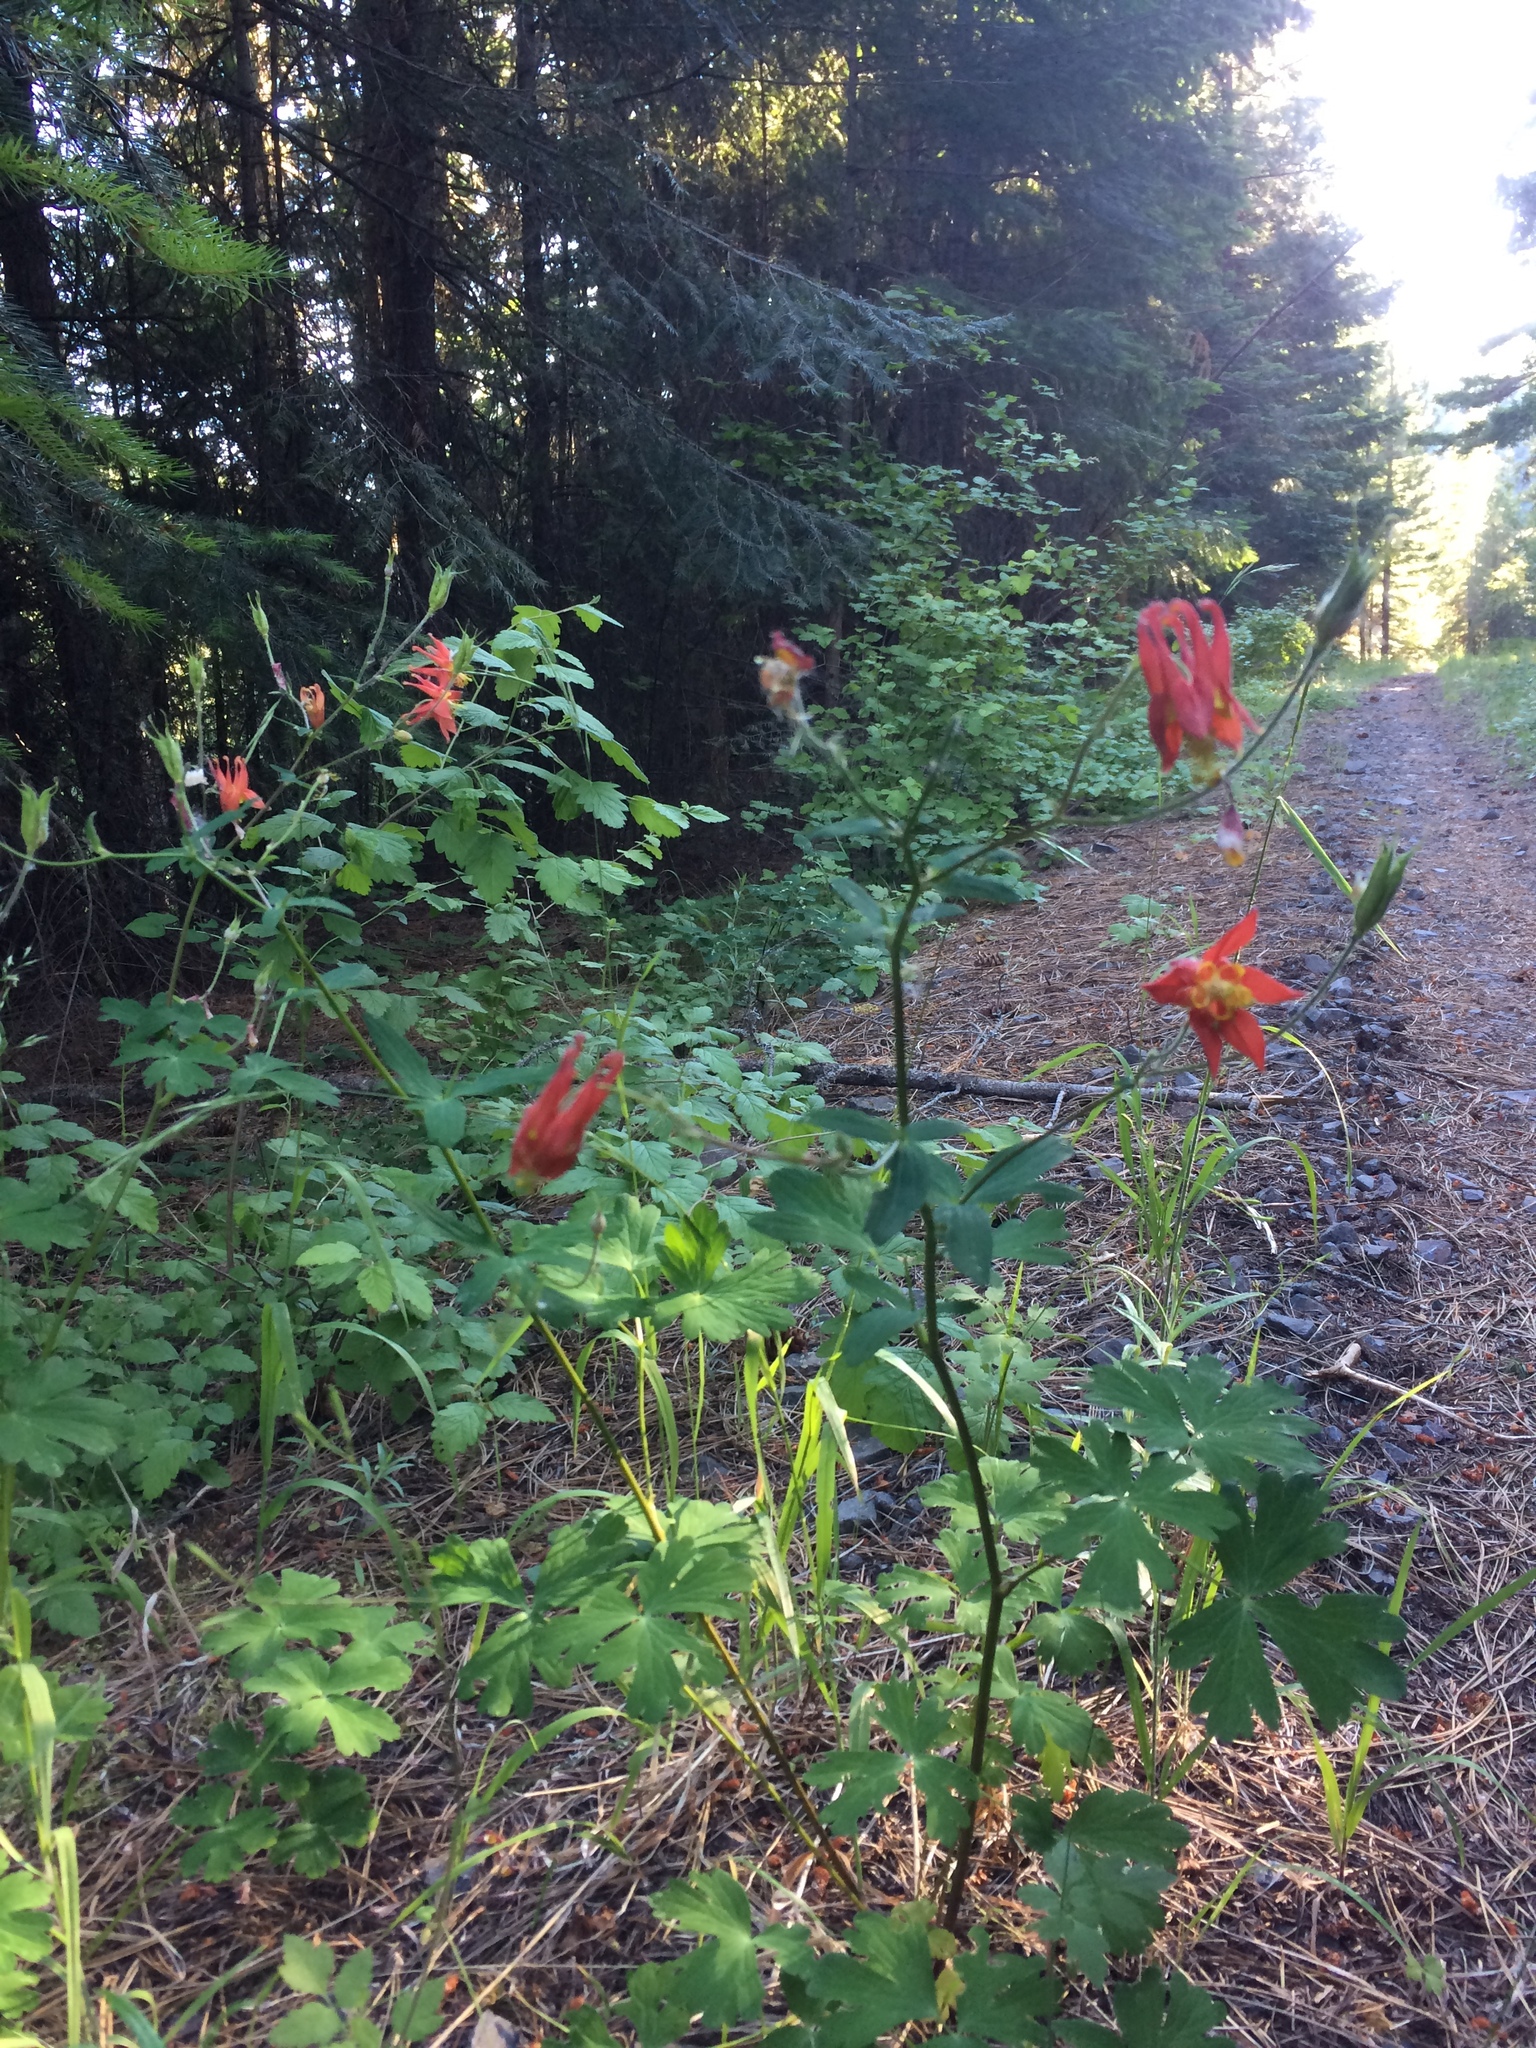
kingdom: Plantae
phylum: Tracheophyta
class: Magnoliopsida
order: Ranunculales
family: Ranunculaceae
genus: Aquilegia
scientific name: Aquilegia formosa
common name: Sitka columbine
